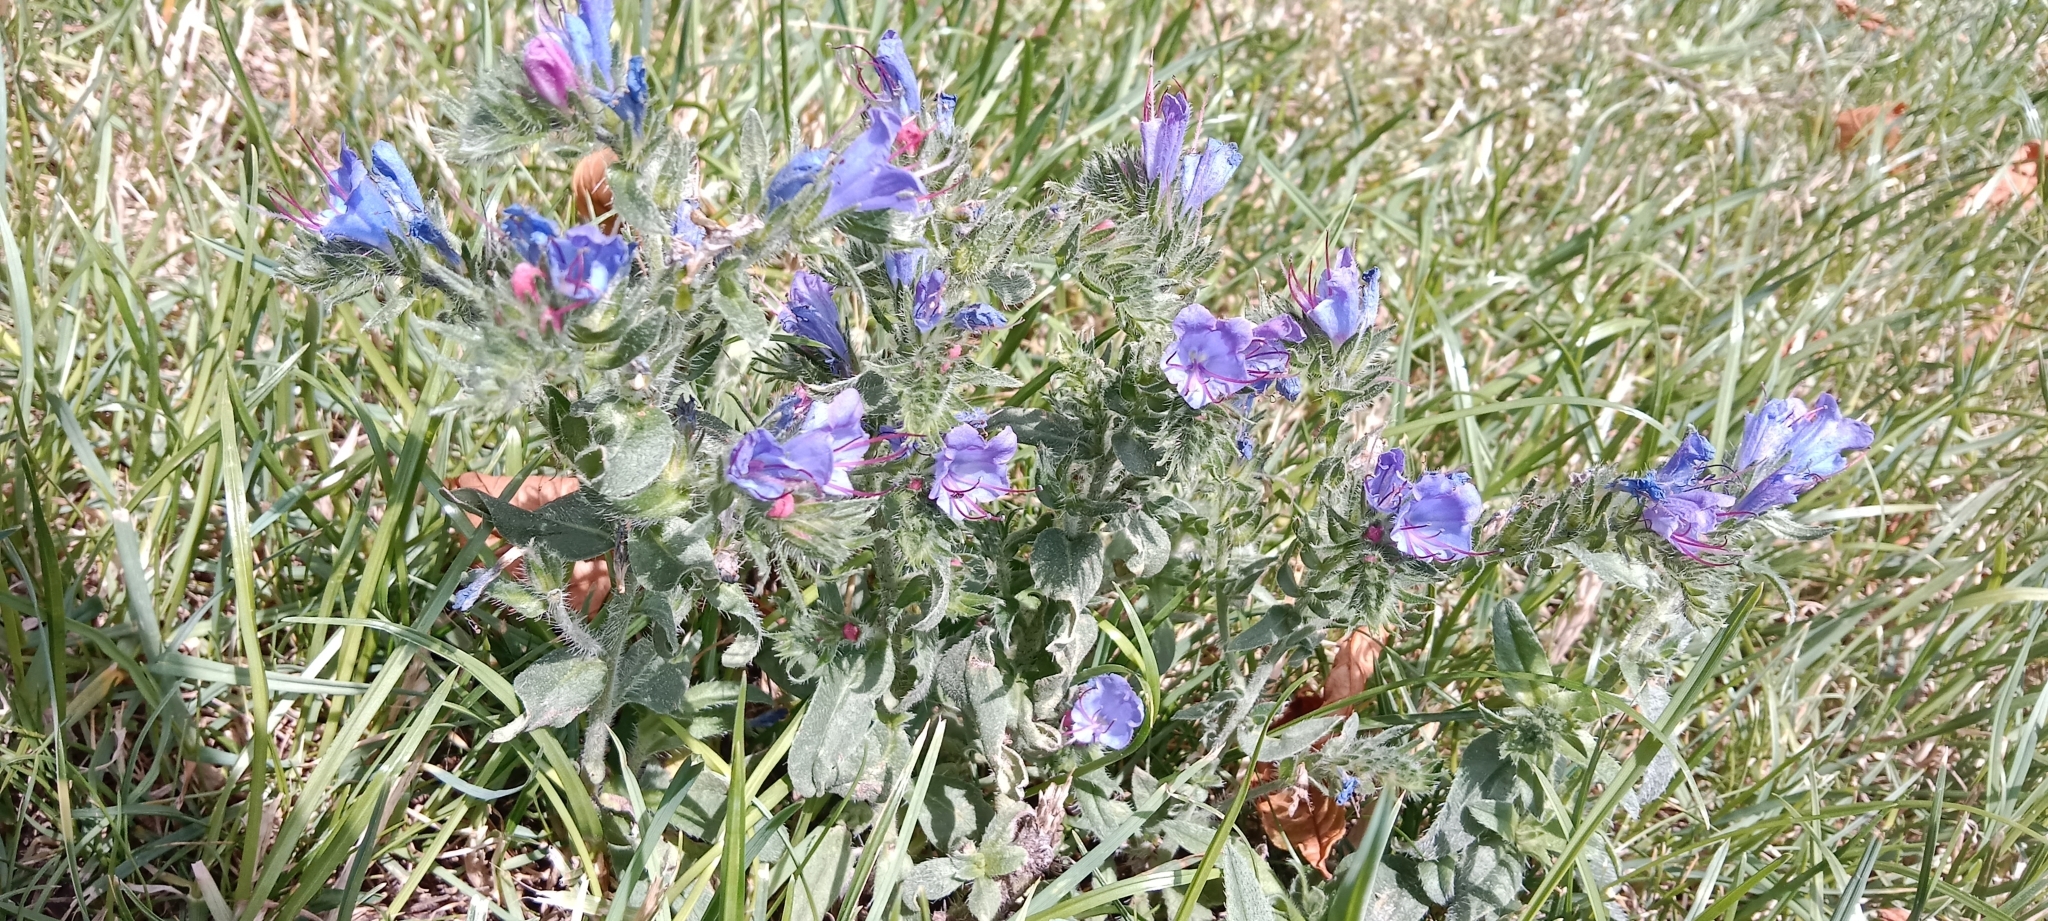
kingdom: Plantae
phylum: Tracheophyta
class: Magnoliopsida
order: Boraginales
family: Boraginaceae
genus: Echium
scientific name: Echium vulgare
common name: Common viper's bugloss
